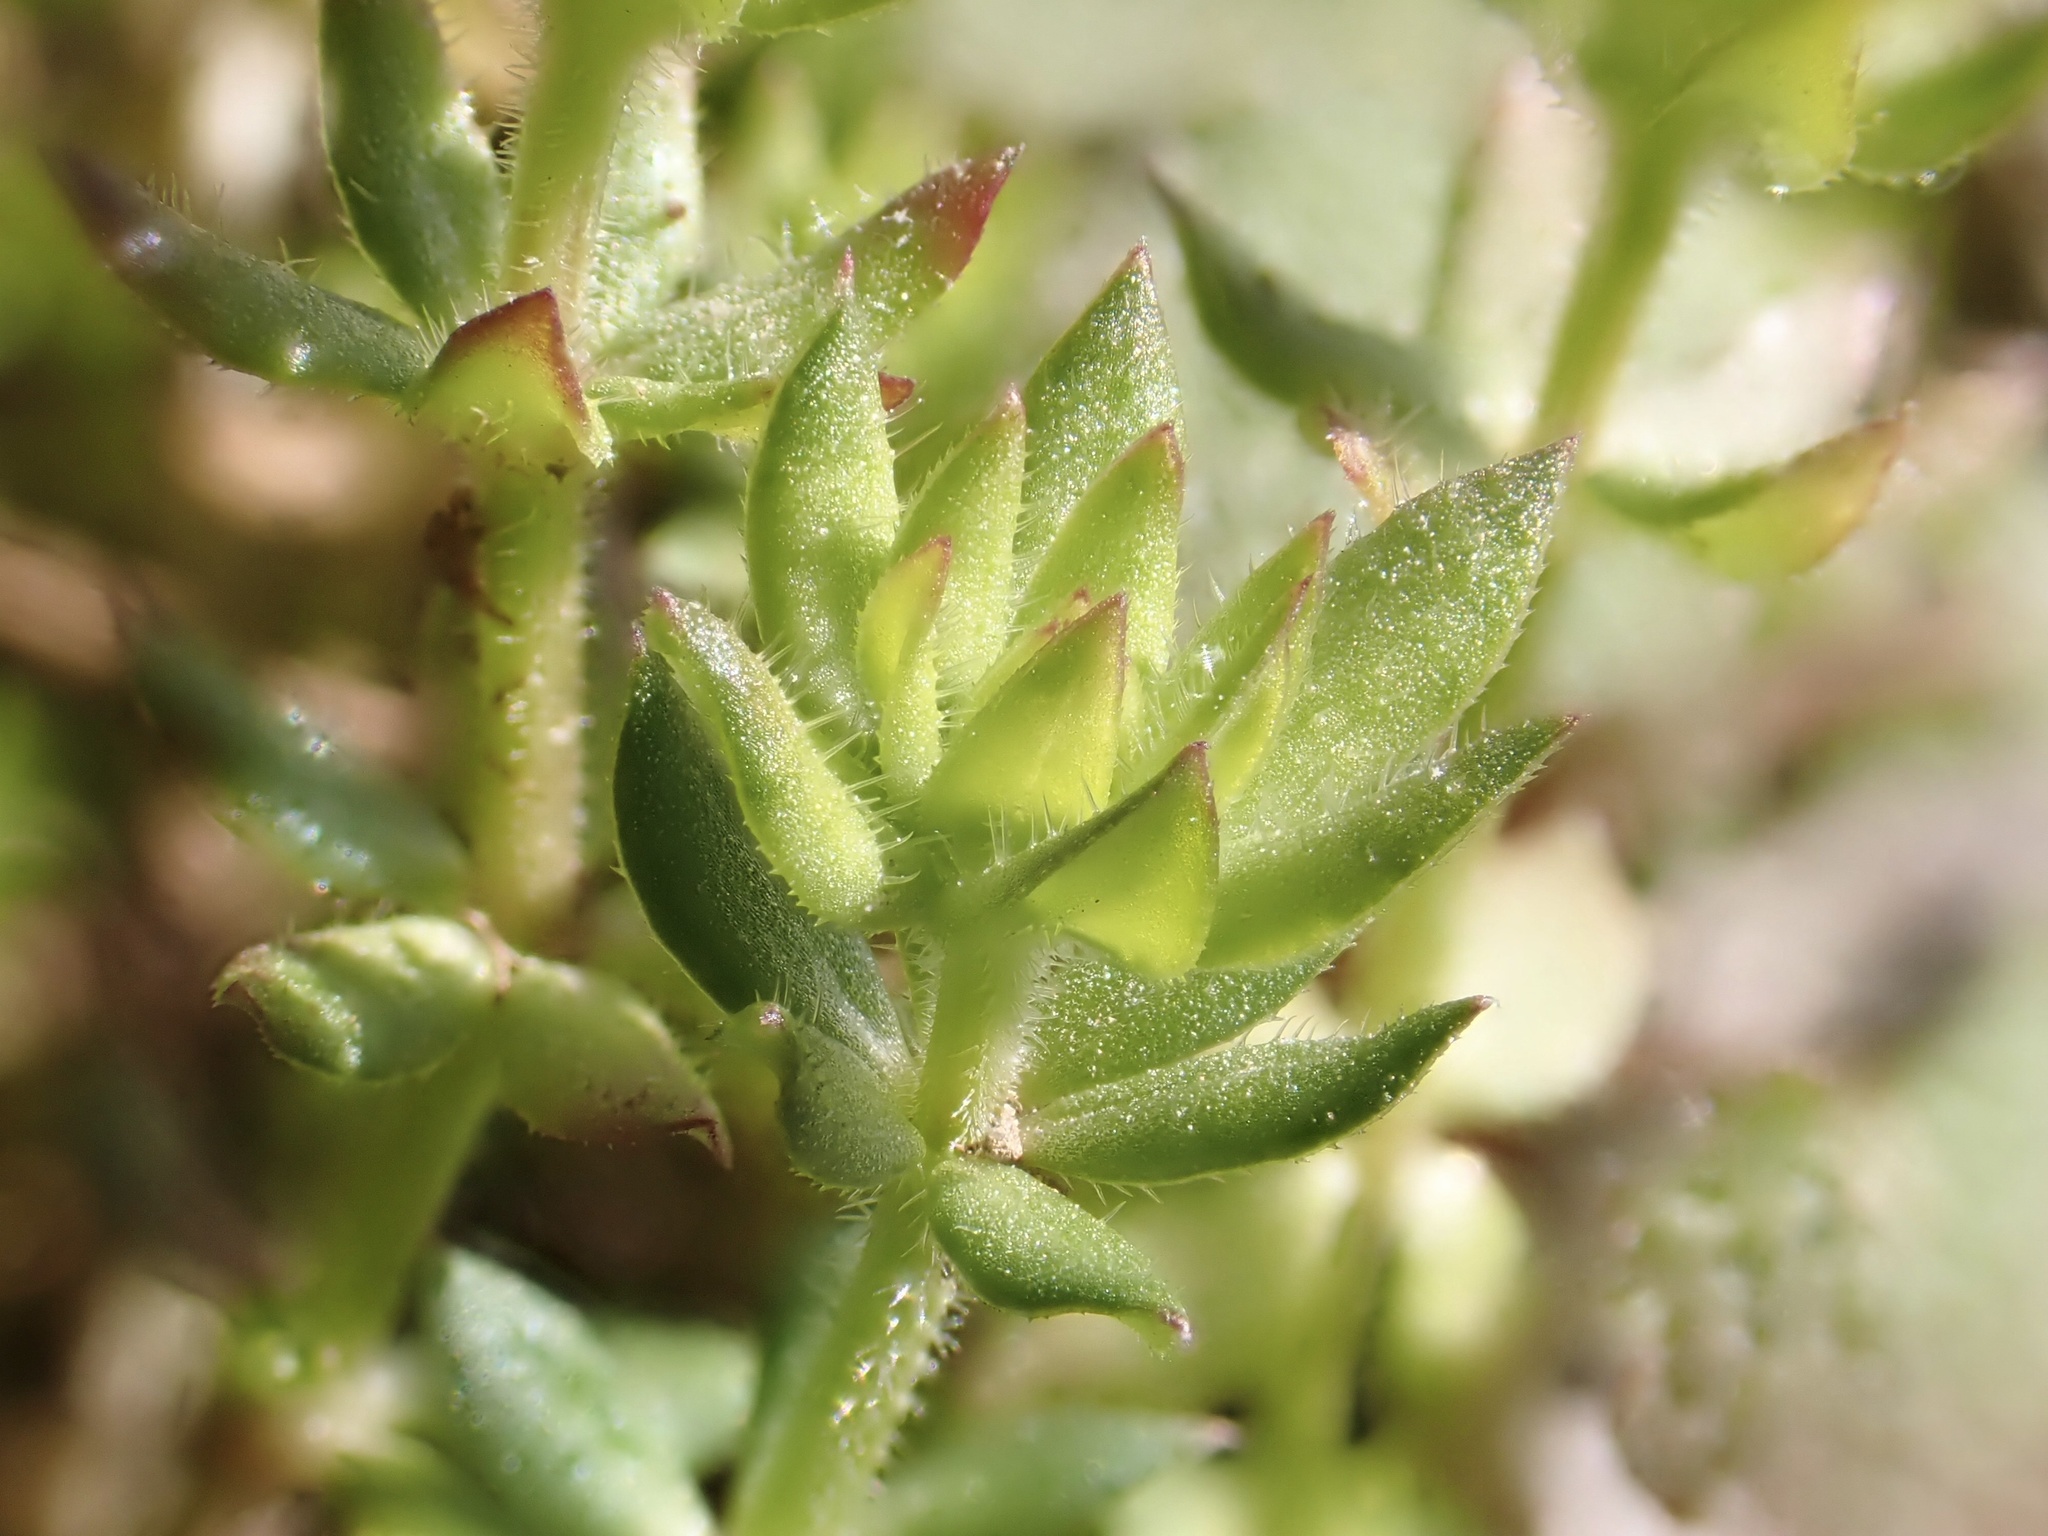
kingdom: Plantae
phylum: Tracheophyta
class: Magnoliopsida
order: Gentianales
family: Rubiaceae
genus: Sherardia
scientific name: Sherardia arvensis
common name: Field madder
